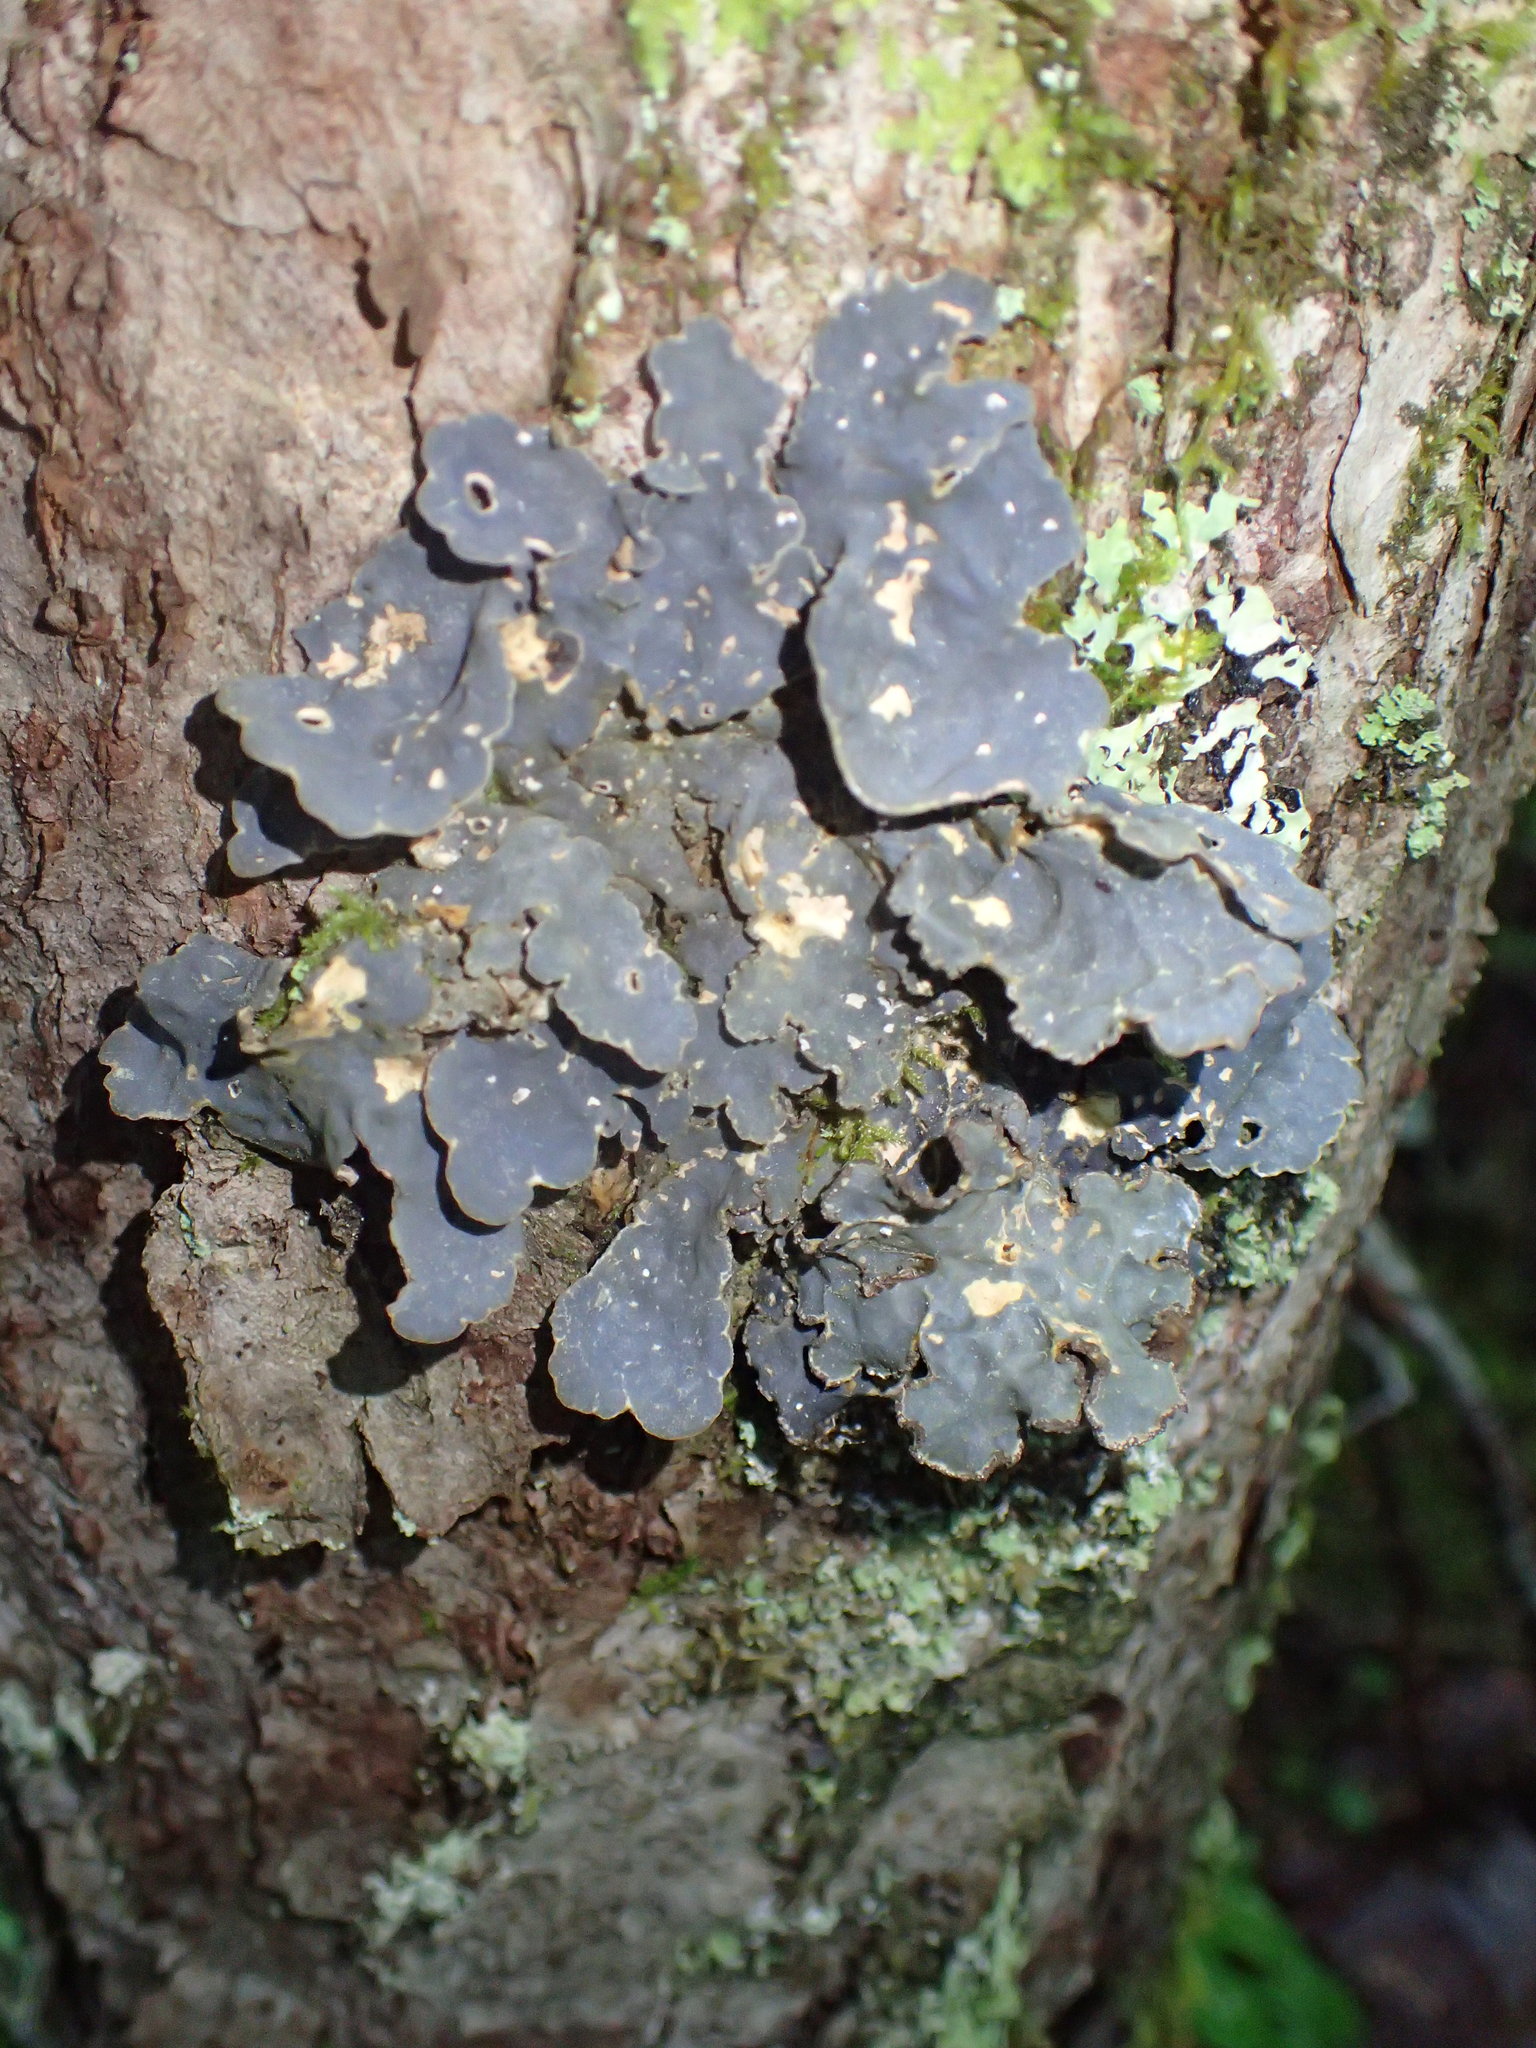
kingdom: Fungi
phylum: Ascomycota
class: Lecanoromycetes
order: Peltigerales
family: Lobariaceae
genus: Lobarina
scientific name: Lobarina scrobiculata
